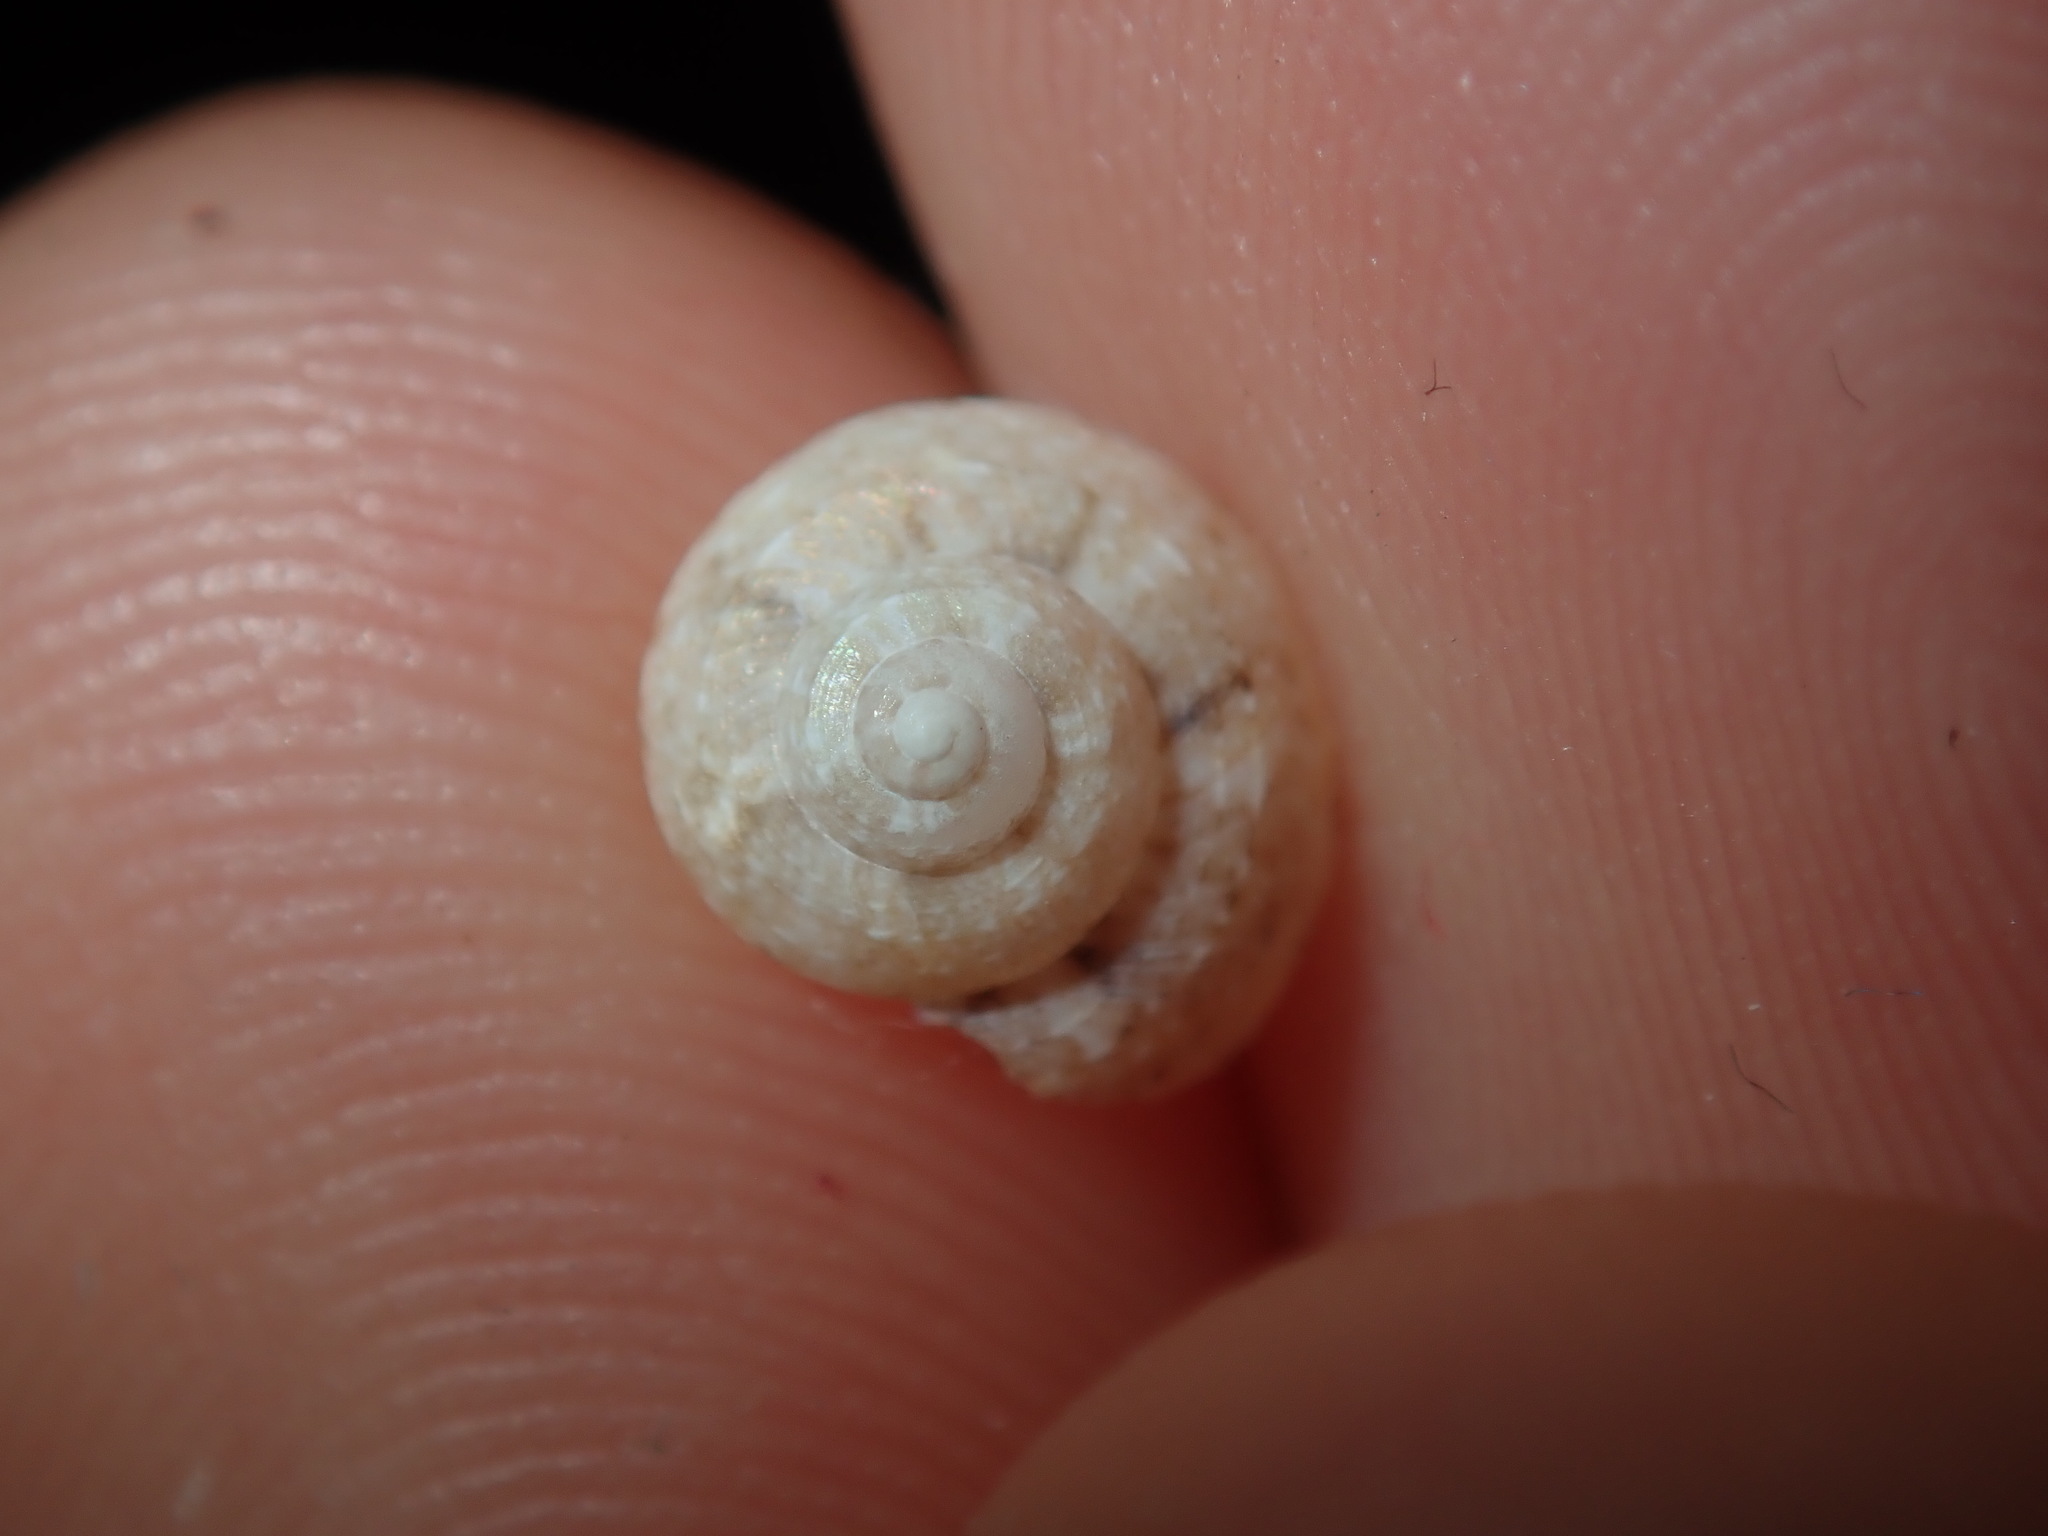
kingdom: Animalia
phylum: Mollusca
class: Gastropoda
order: Trochida
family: Trochidae
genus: Monilea
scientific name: Monilea gloriola
